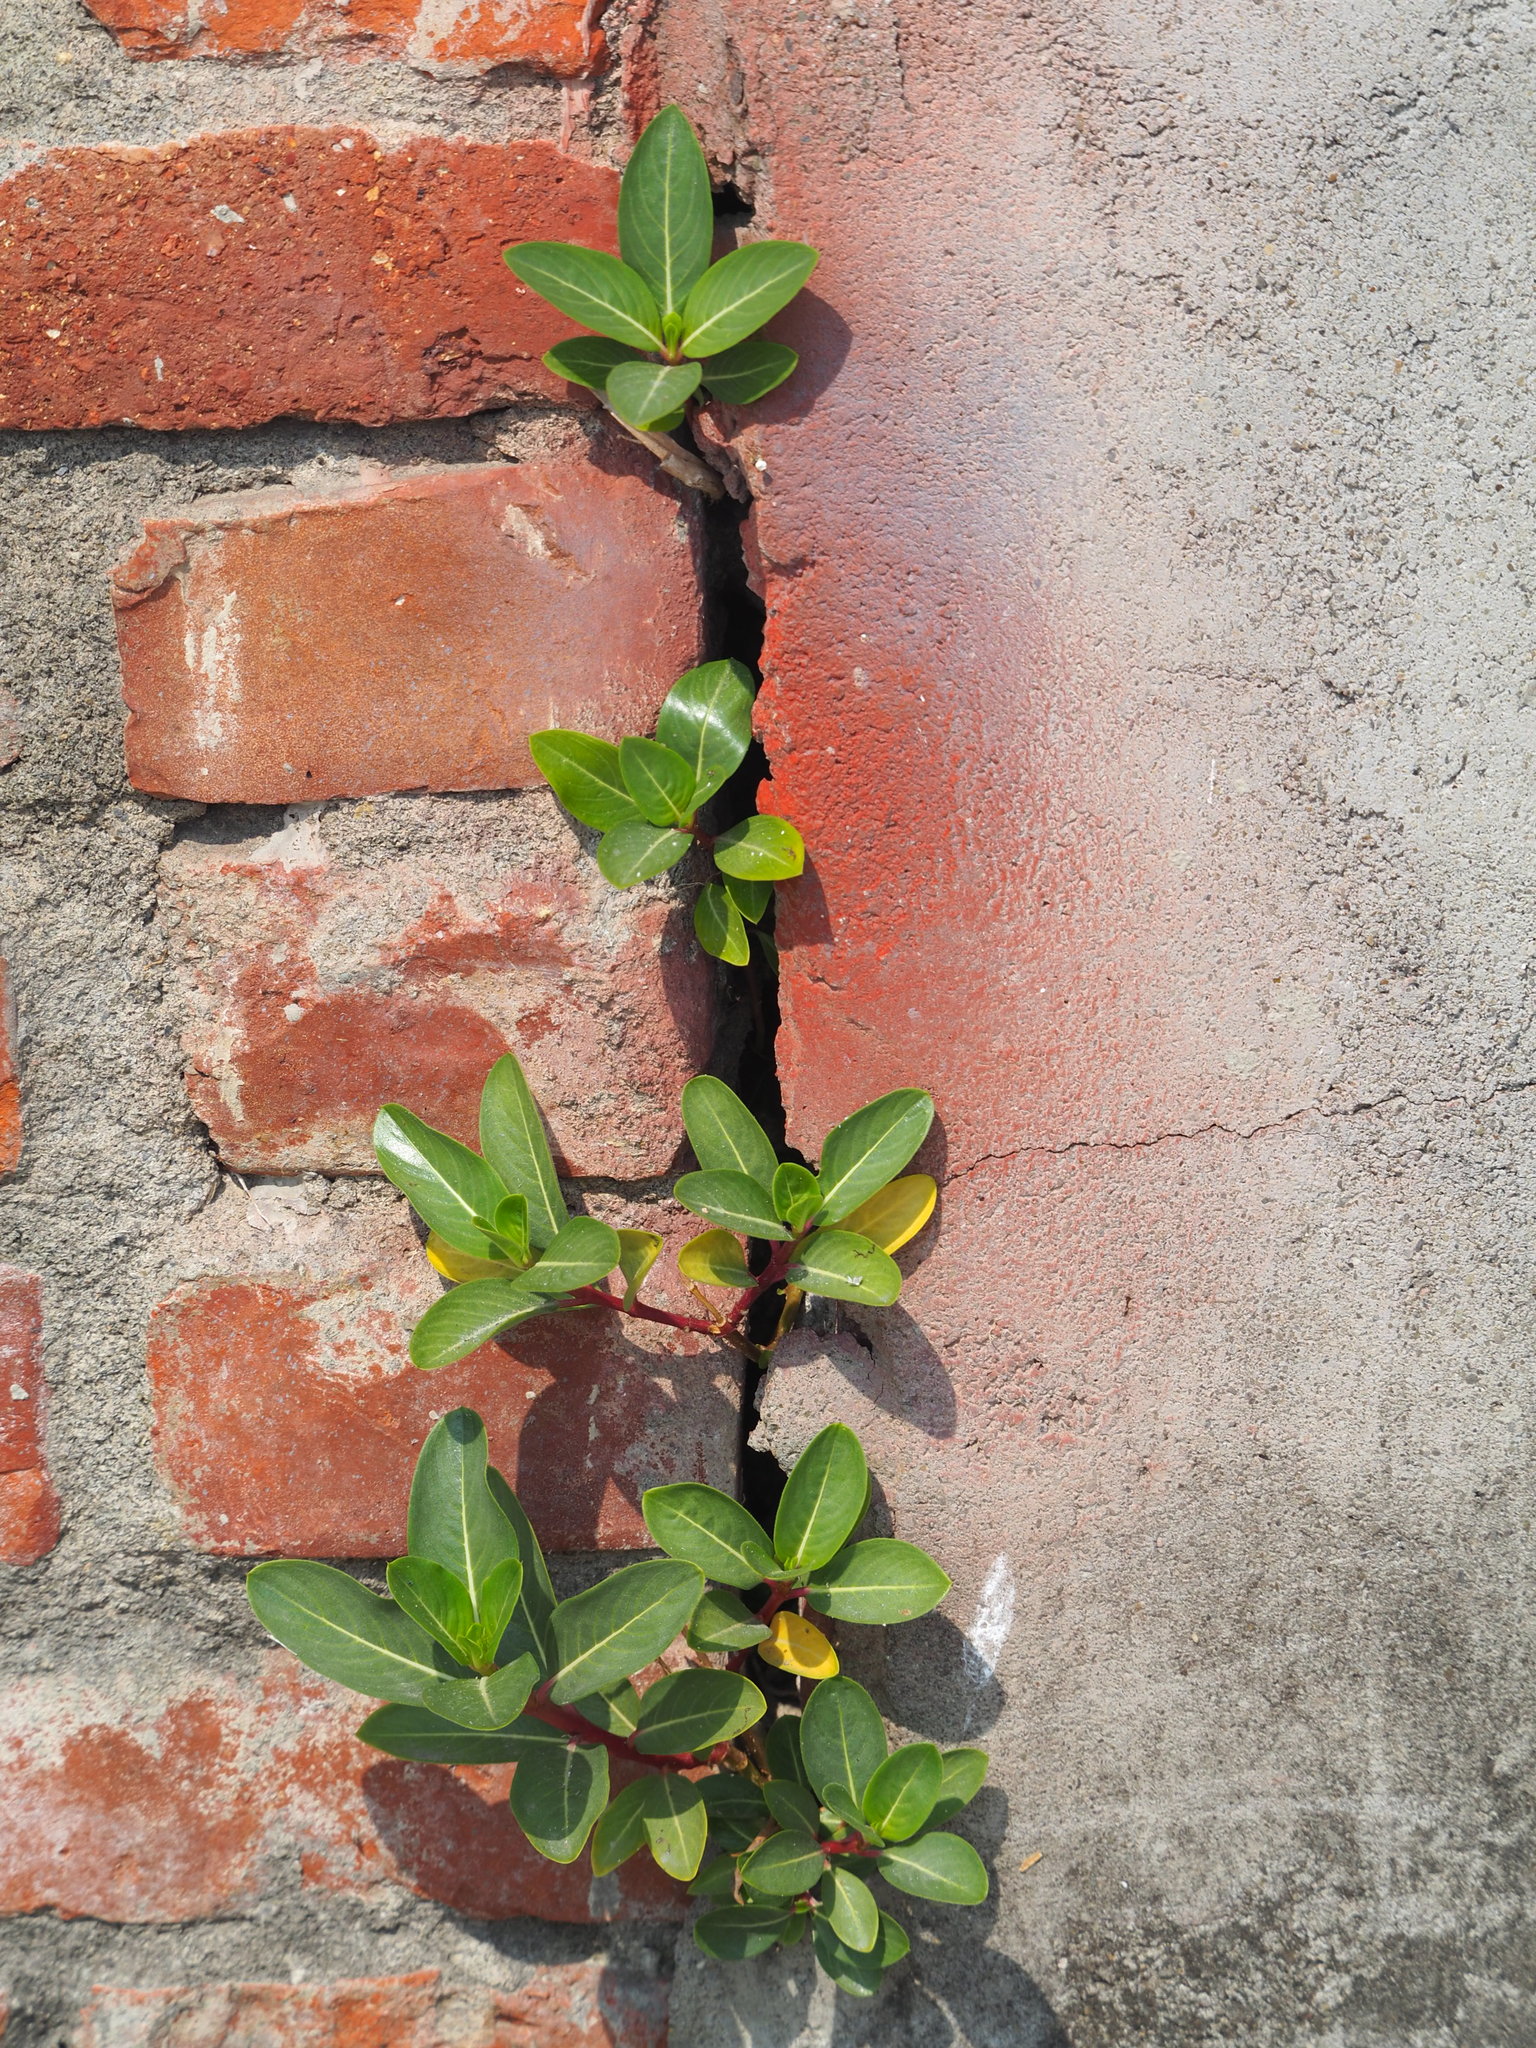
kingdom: Plantae
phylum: Tracheophyta
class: Magnoliopsida
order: Gentianales
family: Apocynaceae
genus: Catharanthus
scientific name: Catharanthus roseus
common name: Madagascar periwinkle
